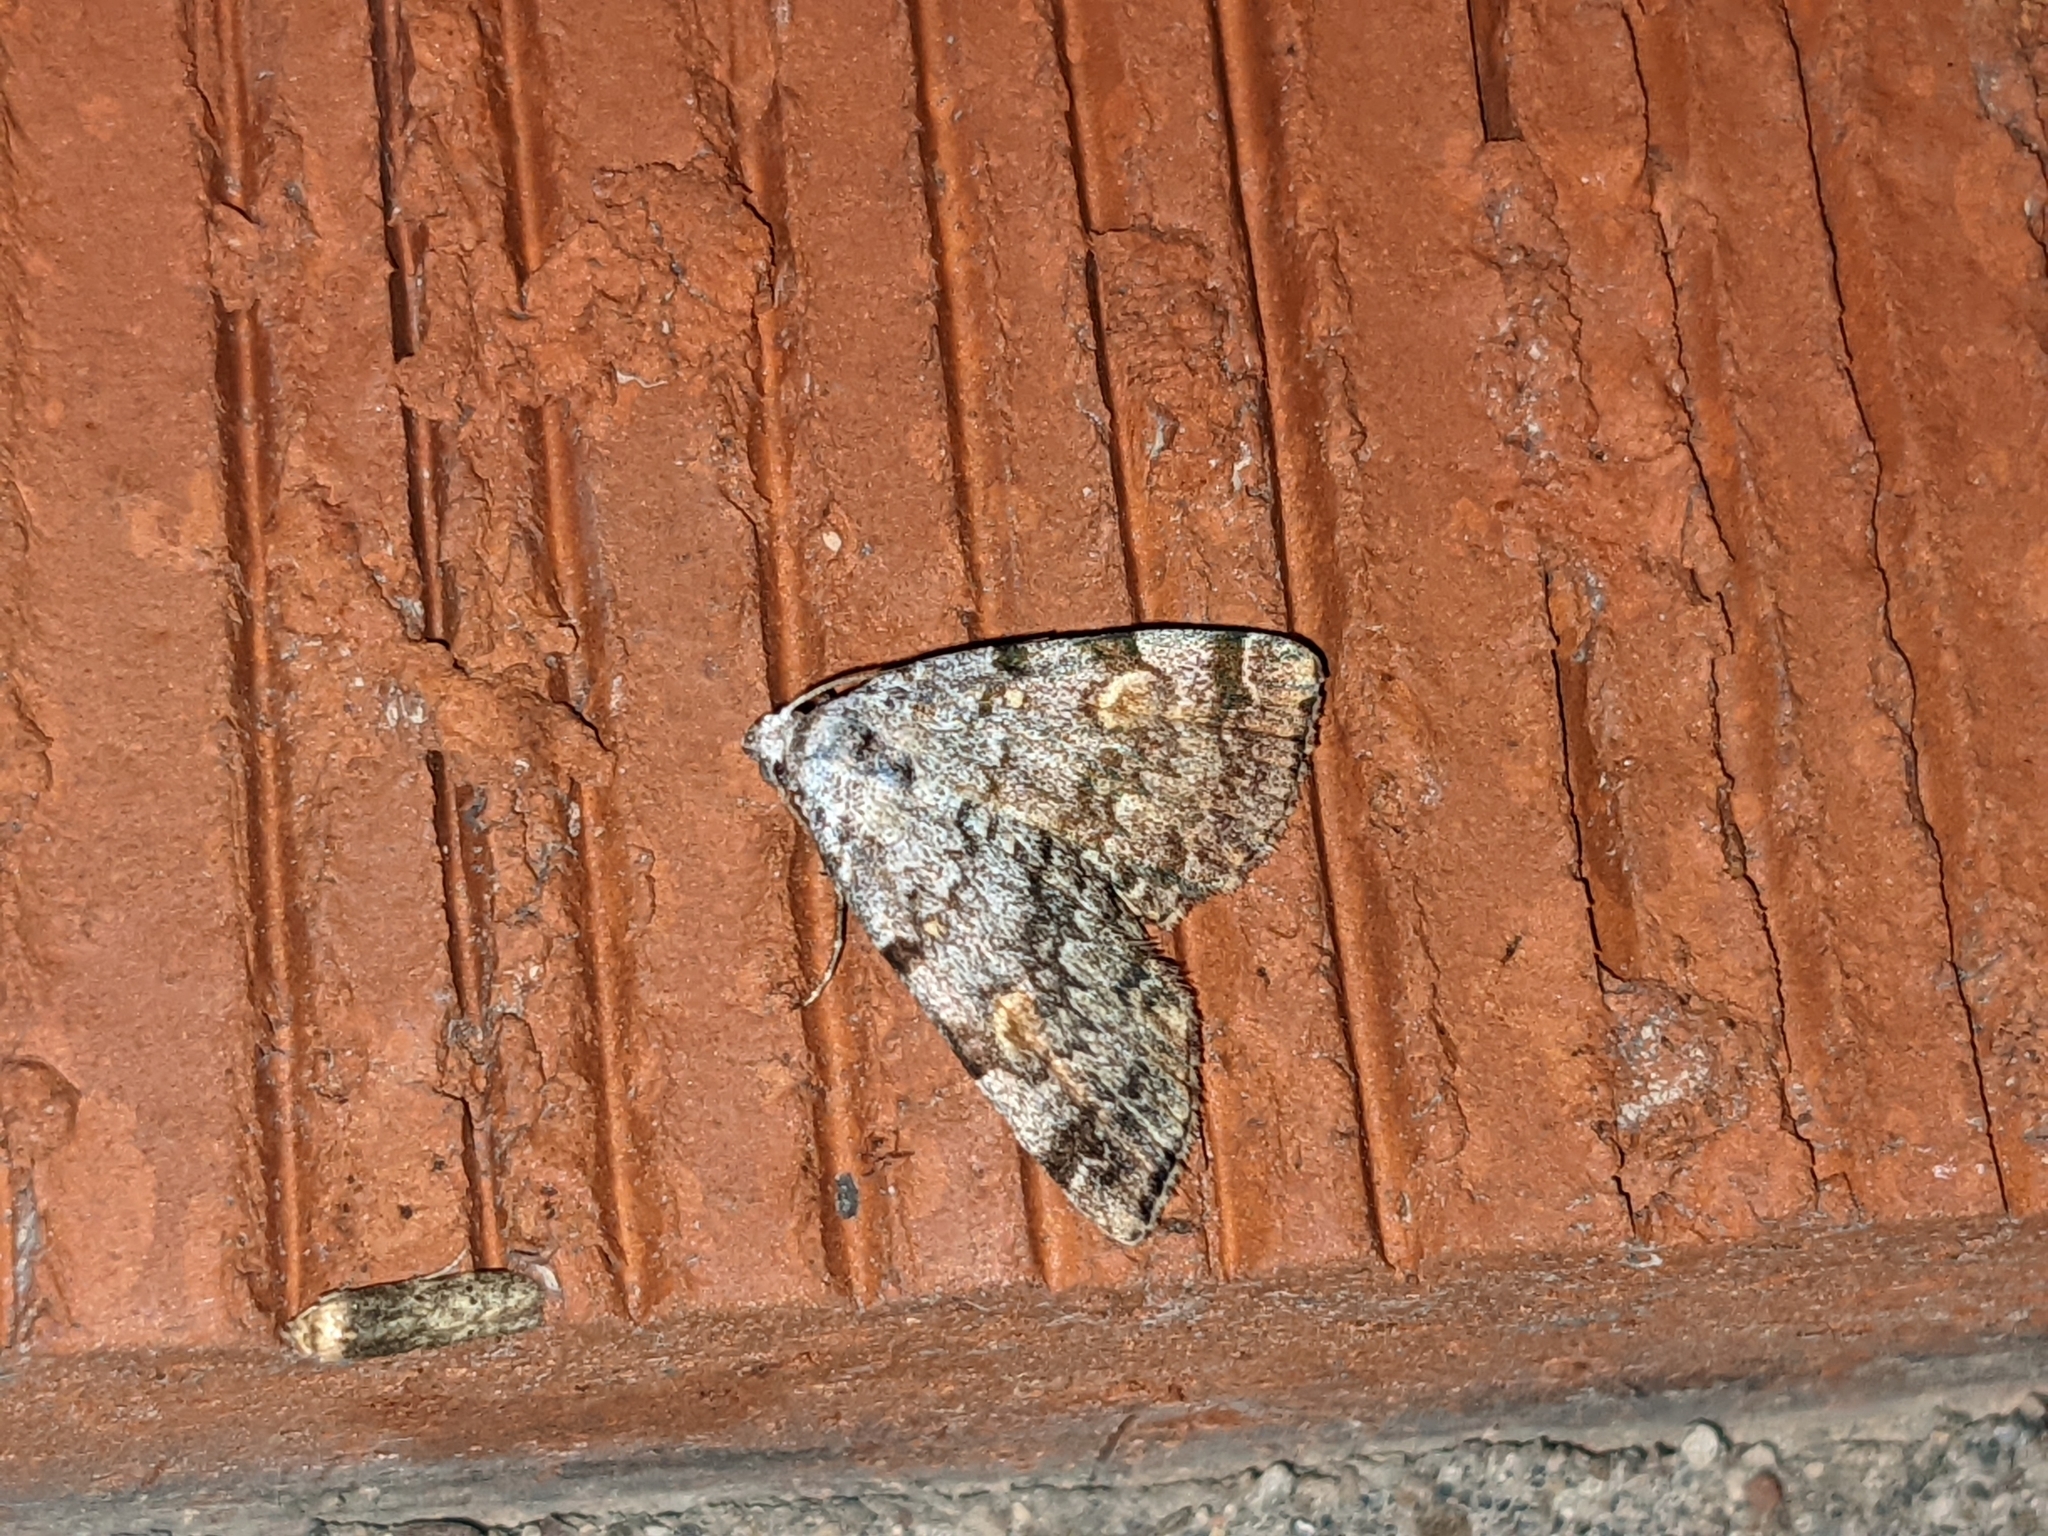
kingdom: Animalia
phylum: Arthropoda
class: Insecta
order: Lepidoptera
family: Erebidae
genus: Idia
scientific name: Idia americalis
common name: American idia moth
